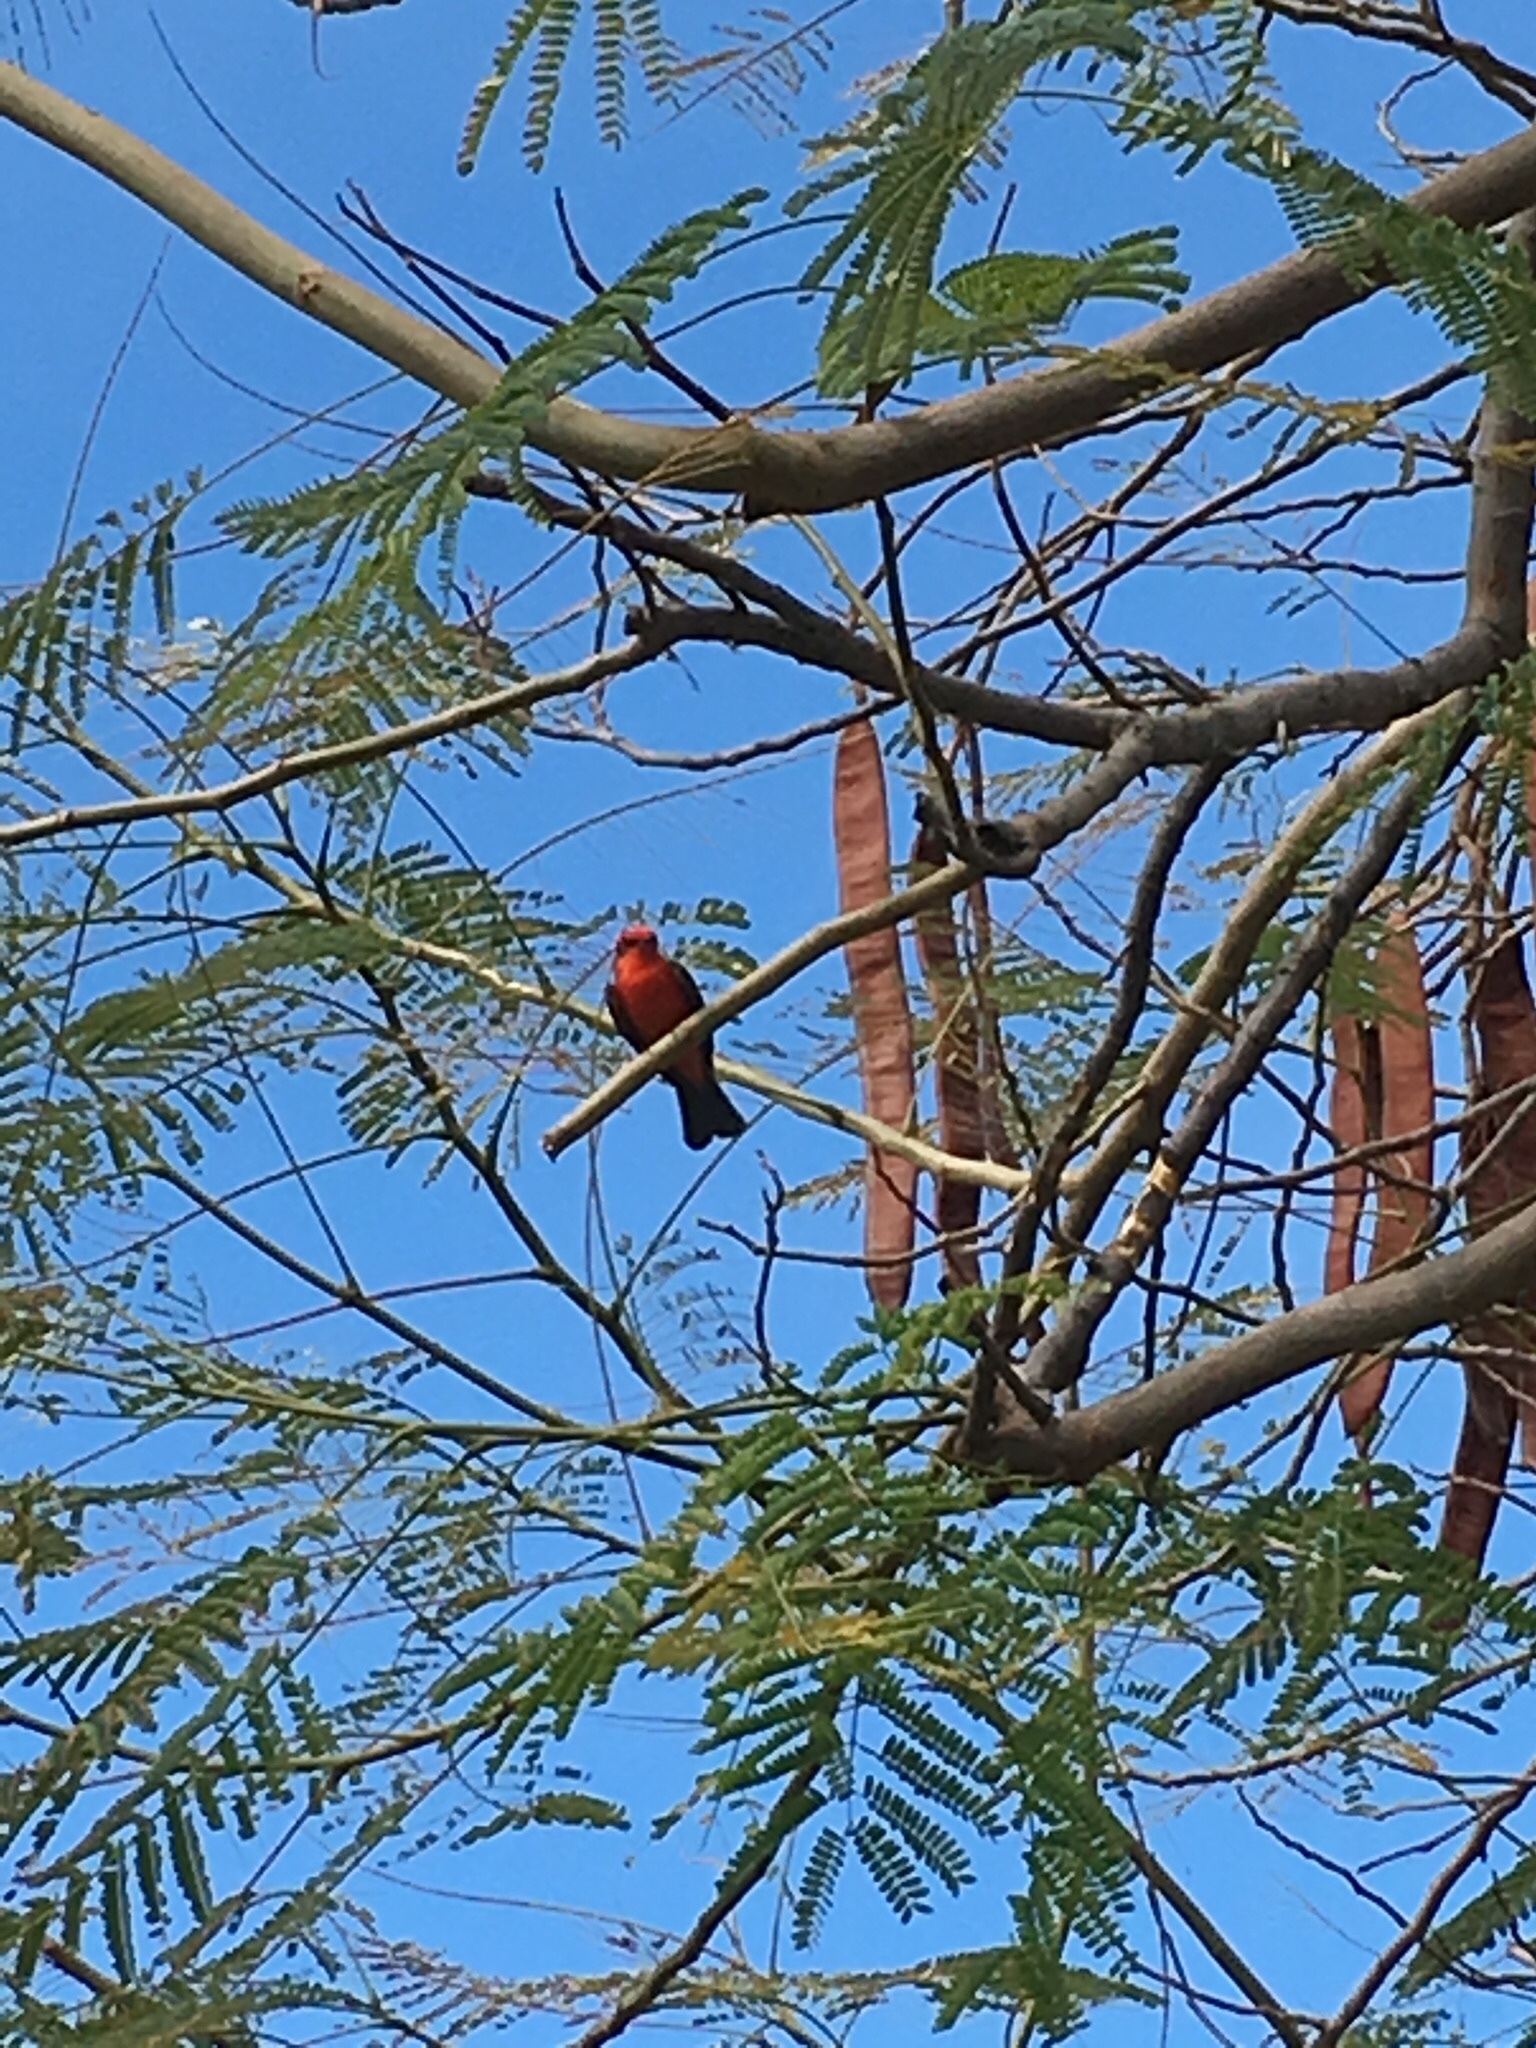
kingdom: Animalia
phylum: Chordata
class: Aves
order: Passeriformes
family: Tyrannidae
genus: Pyrocephalus
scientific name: Pyrocephalus rubinus
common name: Vermilion flycatcher
